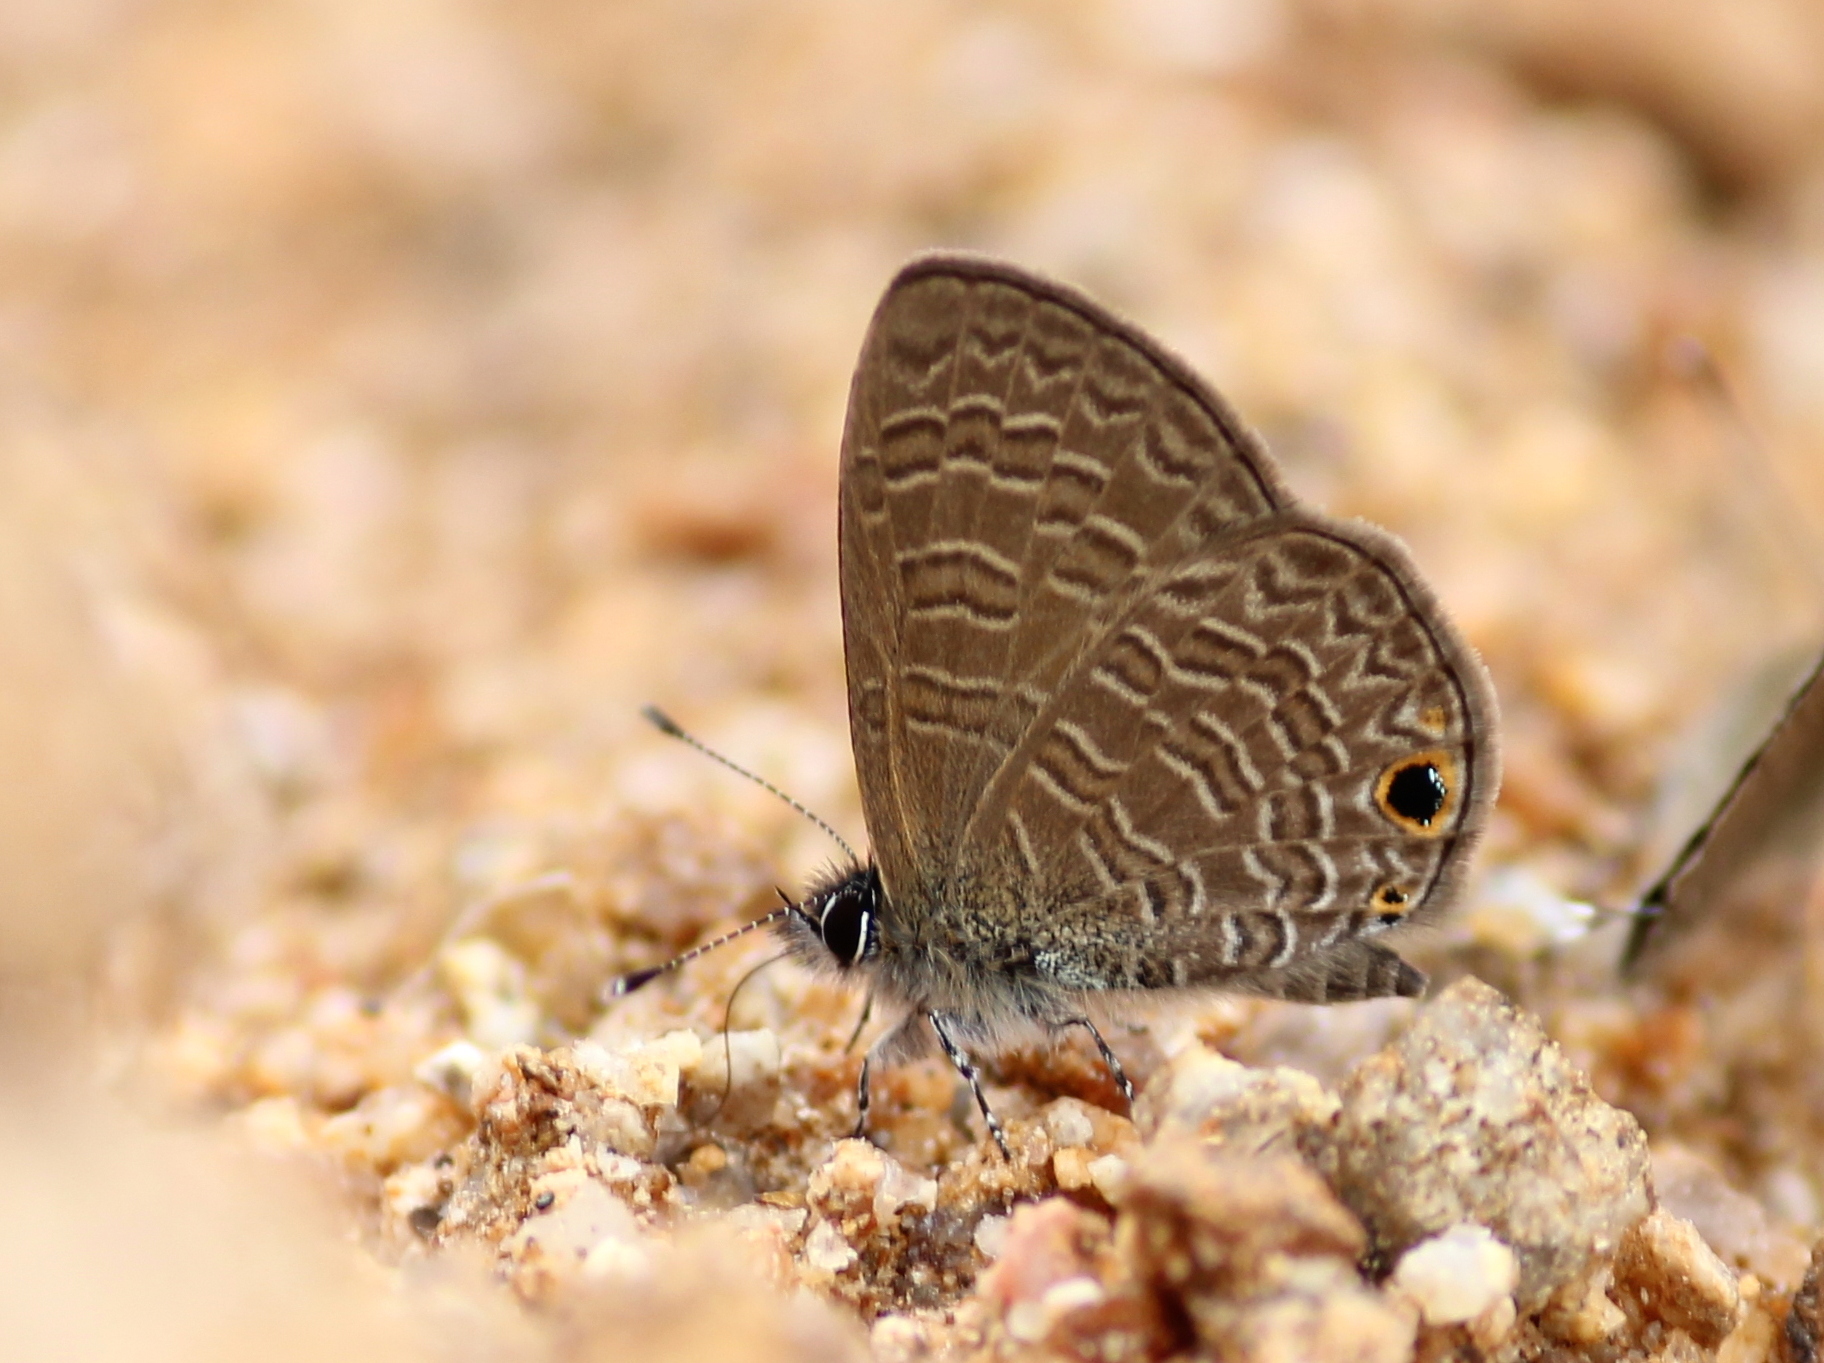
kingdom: Animalia
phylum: Arthropoda
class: Insecta
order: Lepidoptera
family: Lycaenidae
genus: Prosotas
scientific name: Prosotas dubiosa
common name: Tailless lineblue
